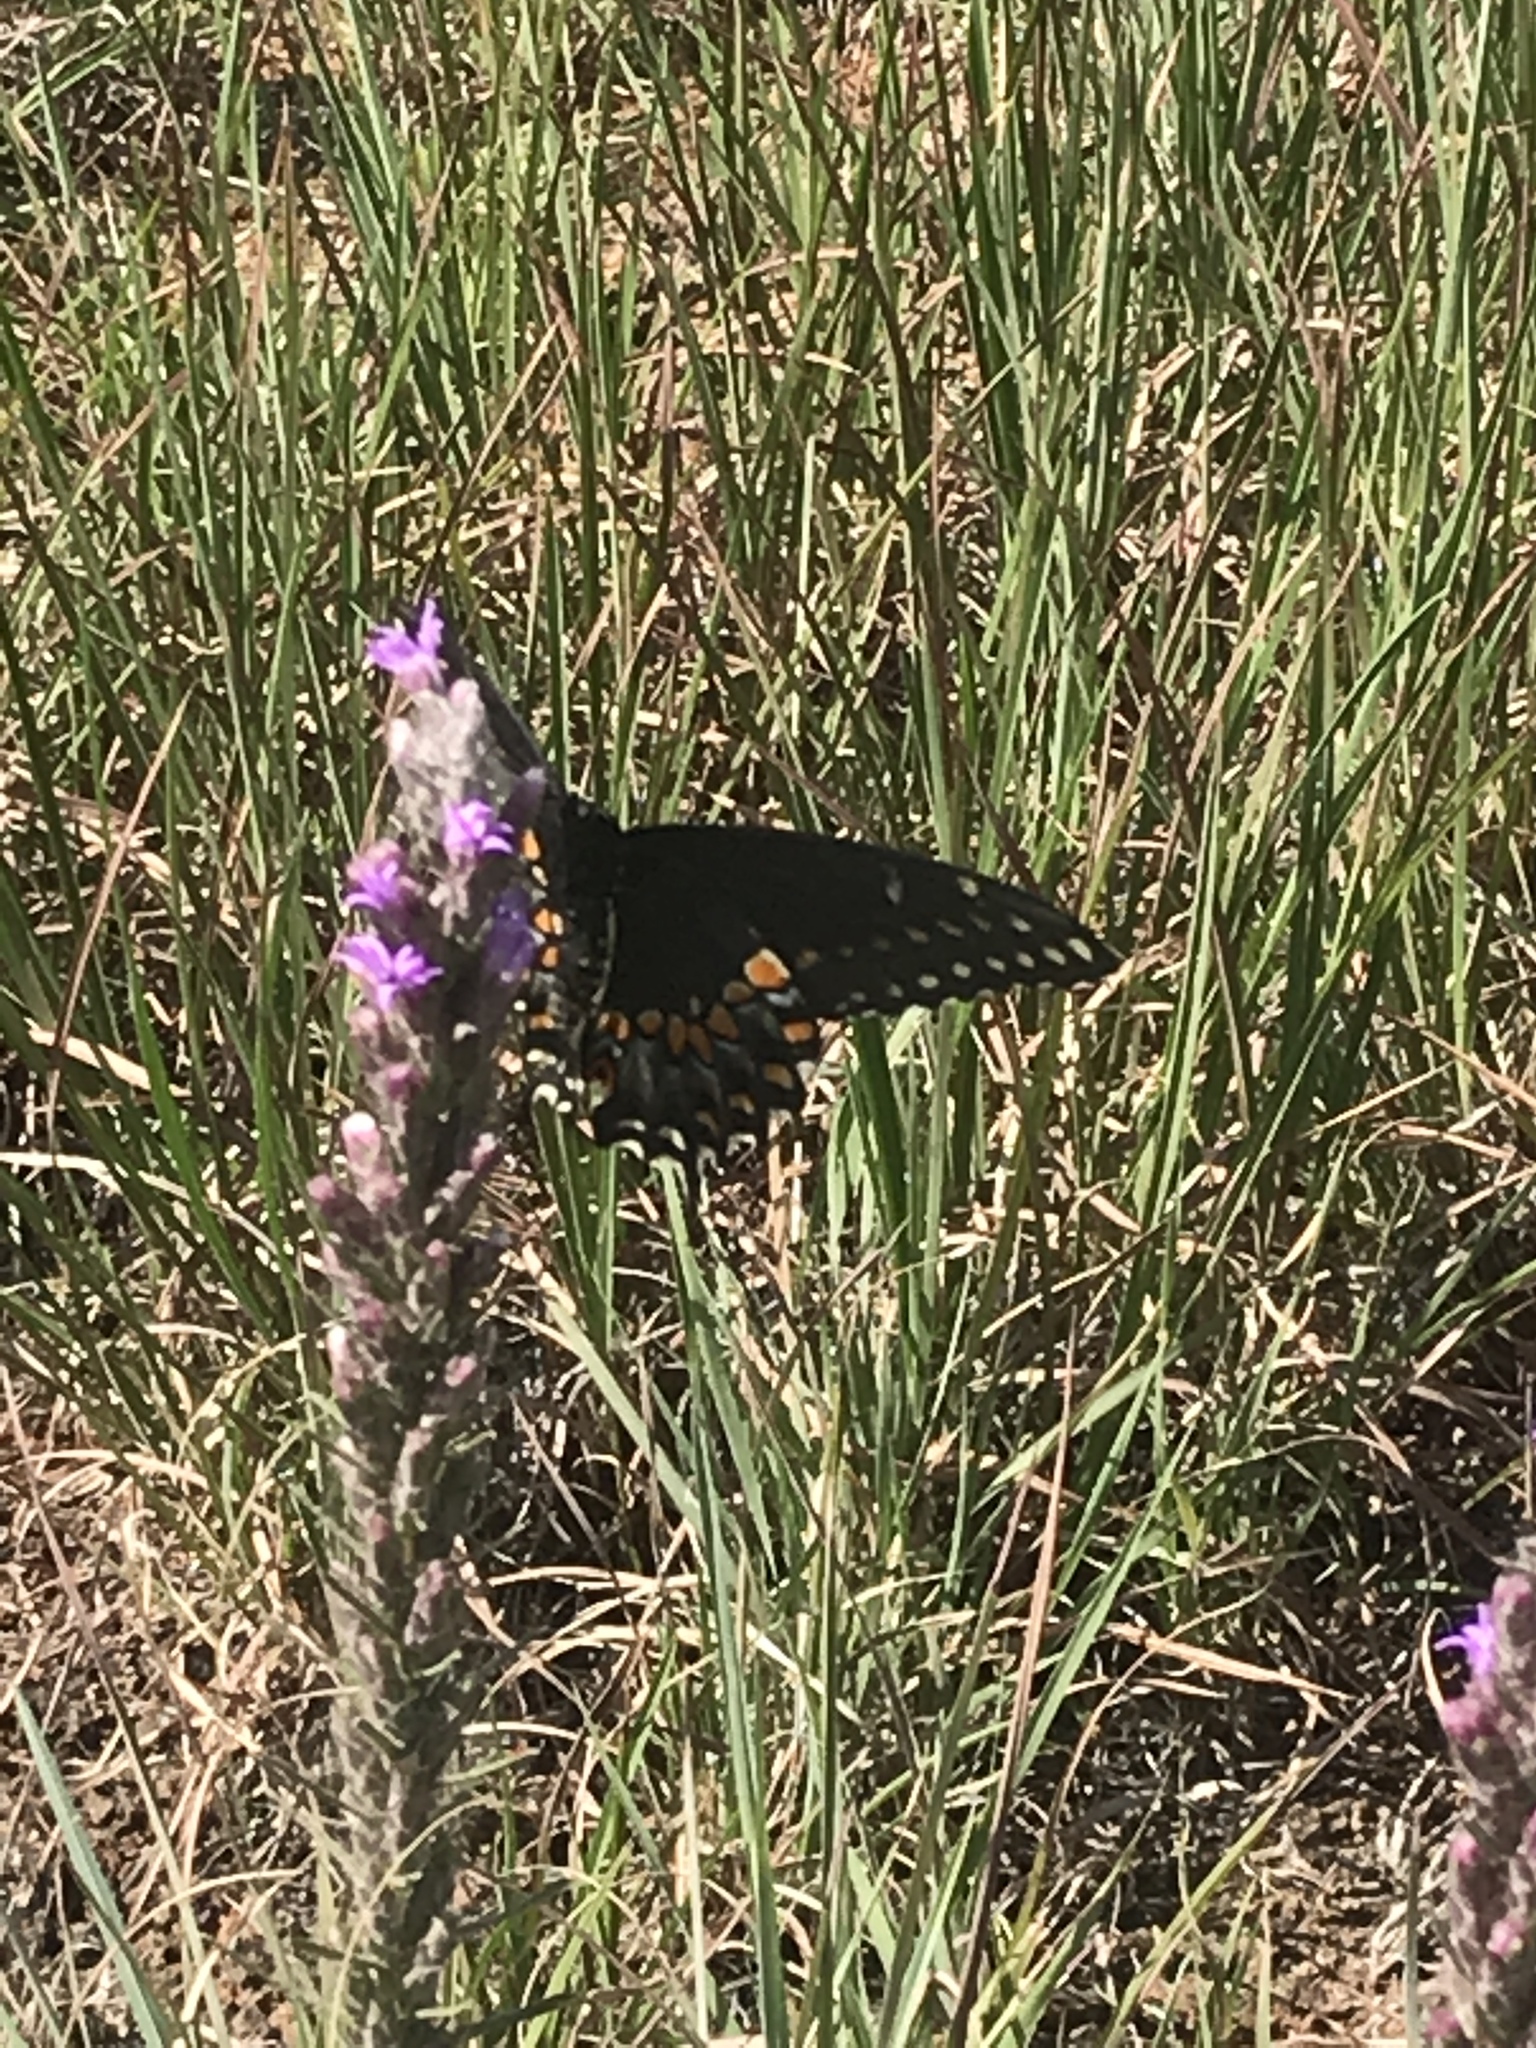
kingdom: Animalia
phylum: Arthropoda
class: Insecta
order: Lepidoptera
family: Papilionidae
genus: Papilio
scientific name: Papilio polyxenes
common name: Black swallowtail
